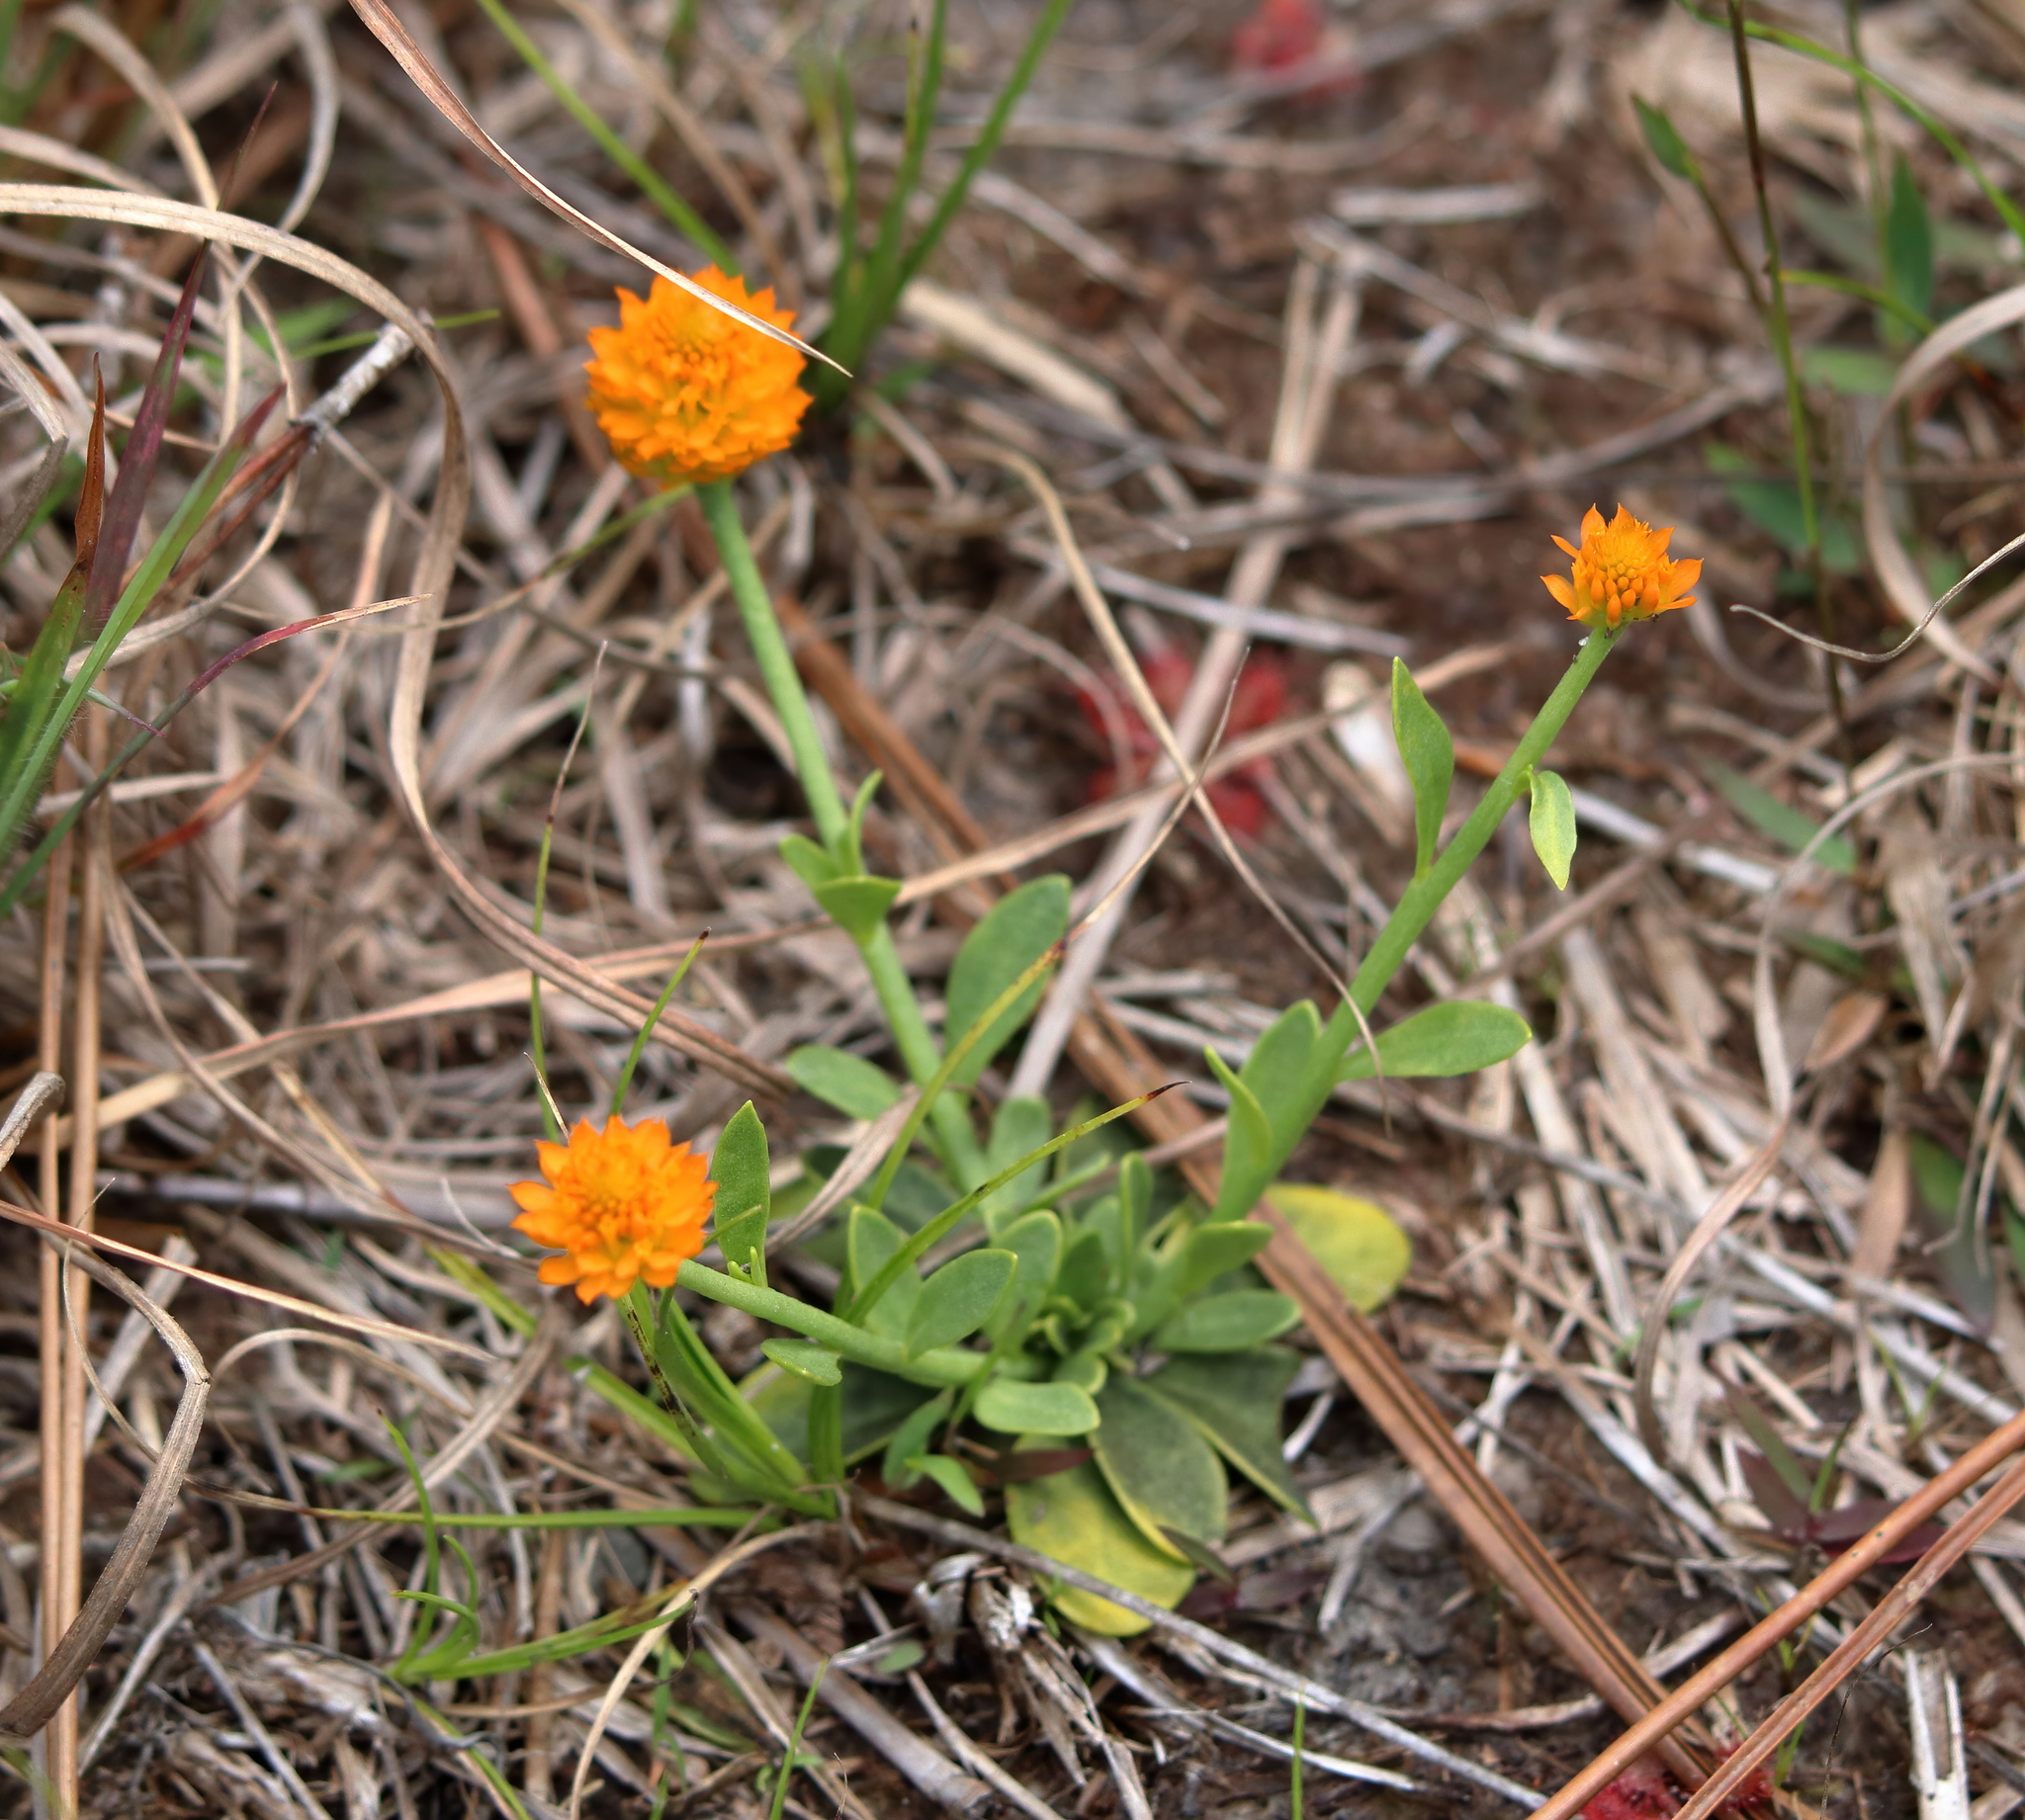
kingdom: Plantae
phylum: Tracheophyta
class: Magnoliopsida
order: Fabales
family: Polygalaceae
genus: Polygala
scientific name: Polygala lutea
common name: Orange milkwort
